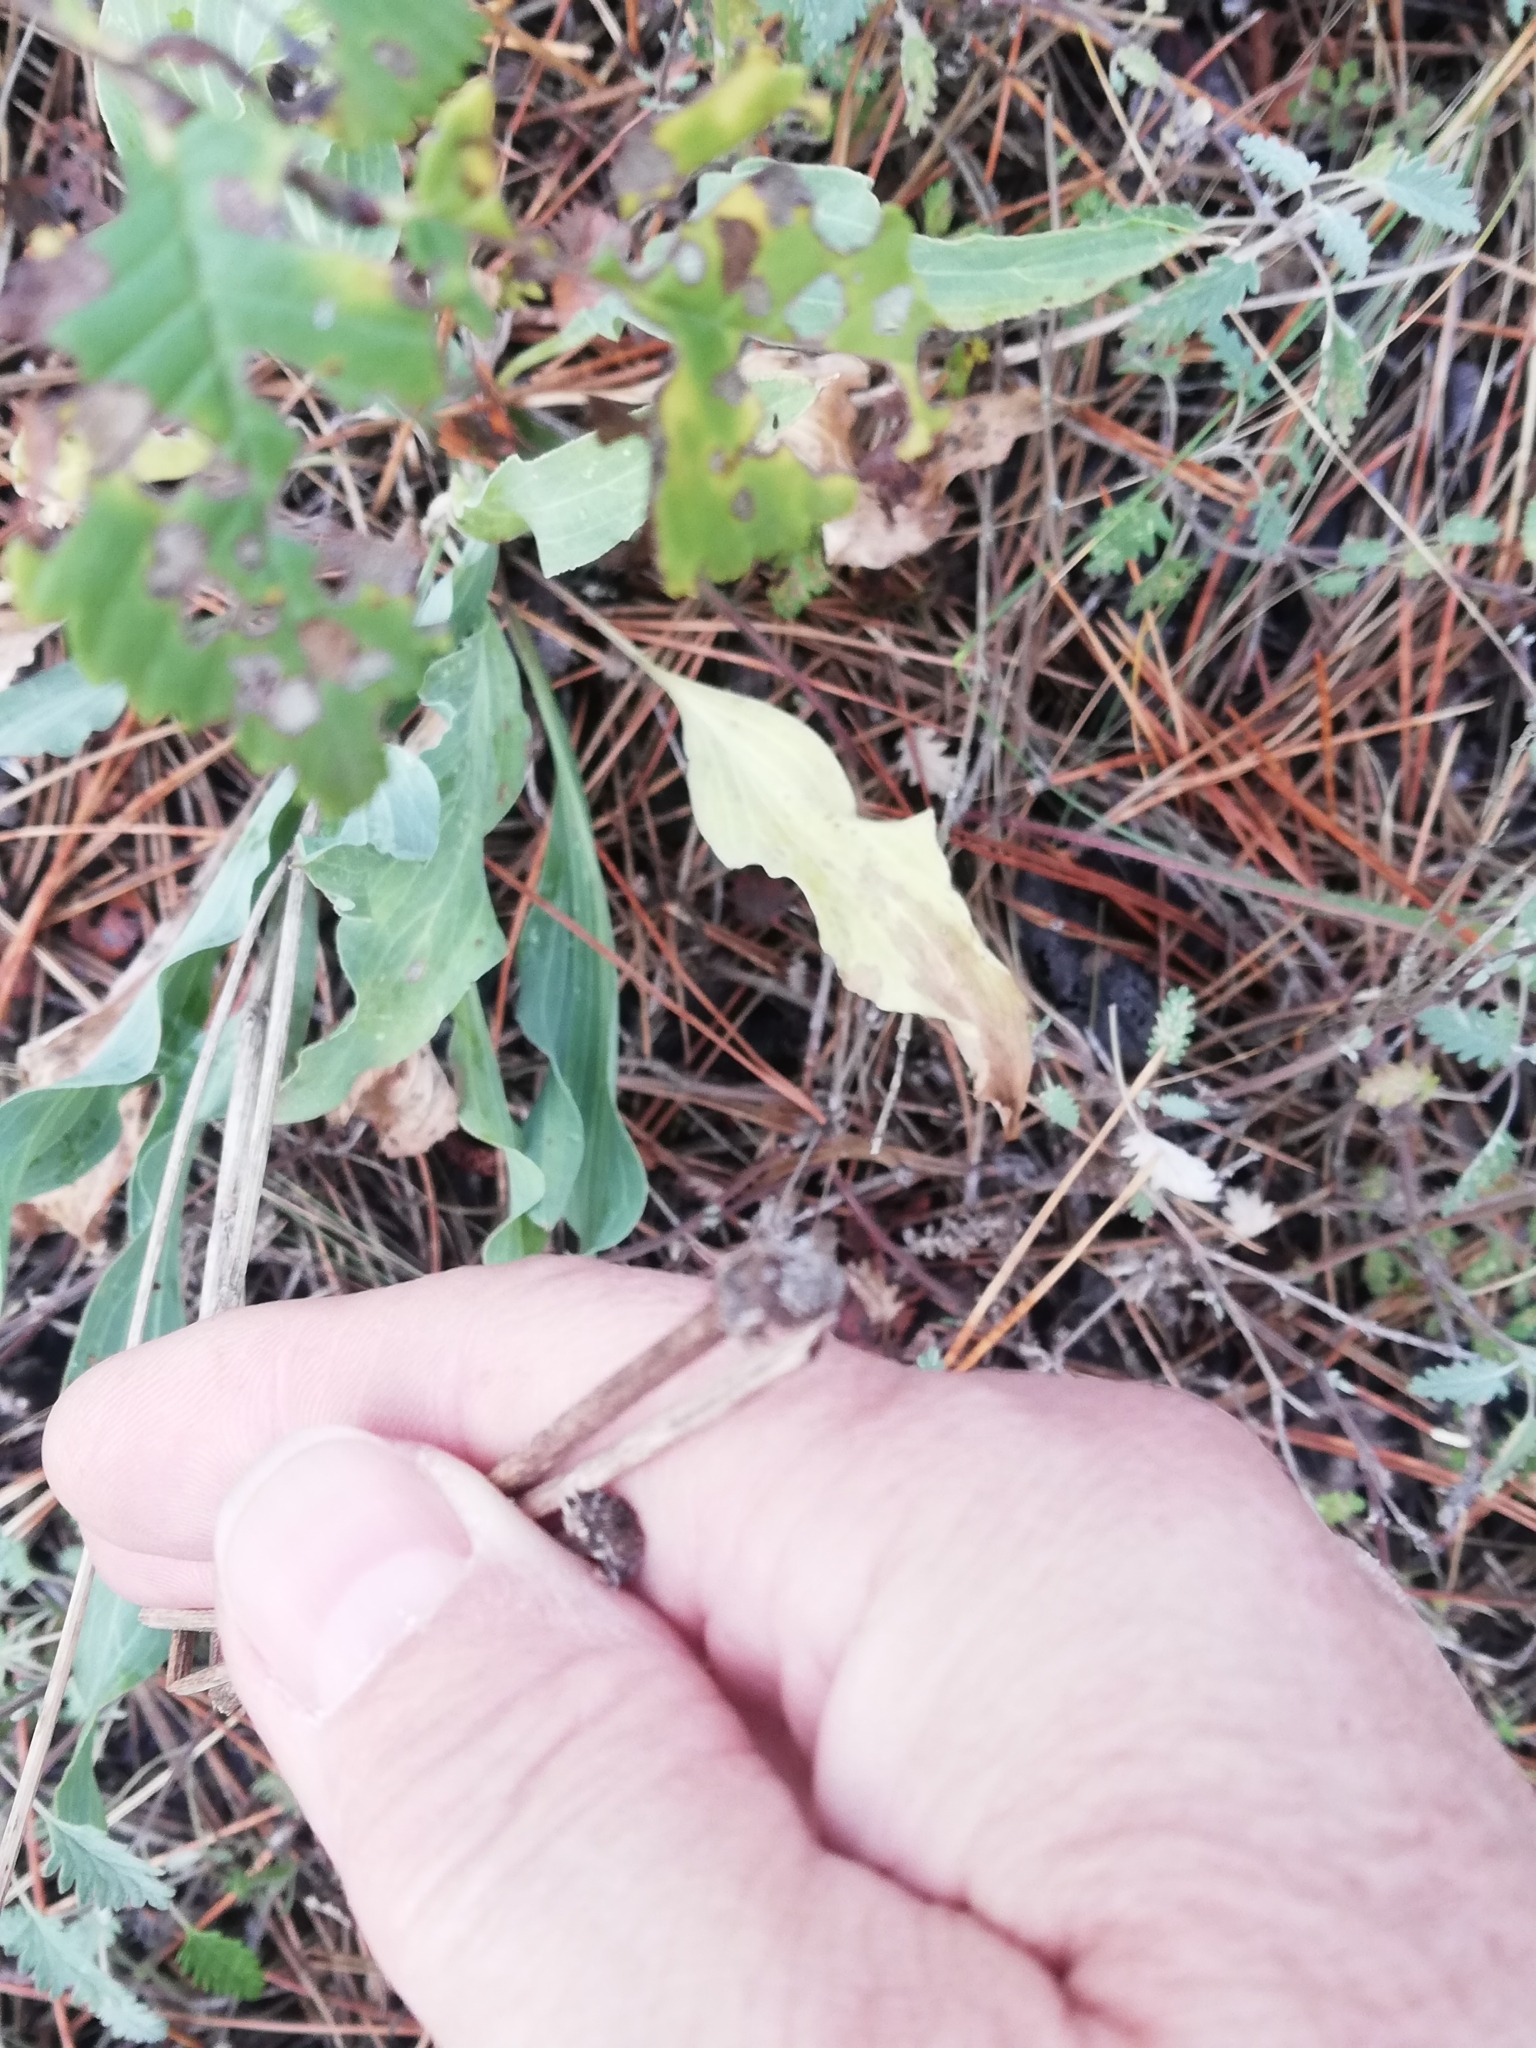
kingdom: Plantae
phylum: Tracheophyta
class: Magnoliopsida
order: Asterales
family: Asteraceae
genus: Scorzonera
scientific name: Scorzonera laciniata
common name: Cutleaf vipergrass
